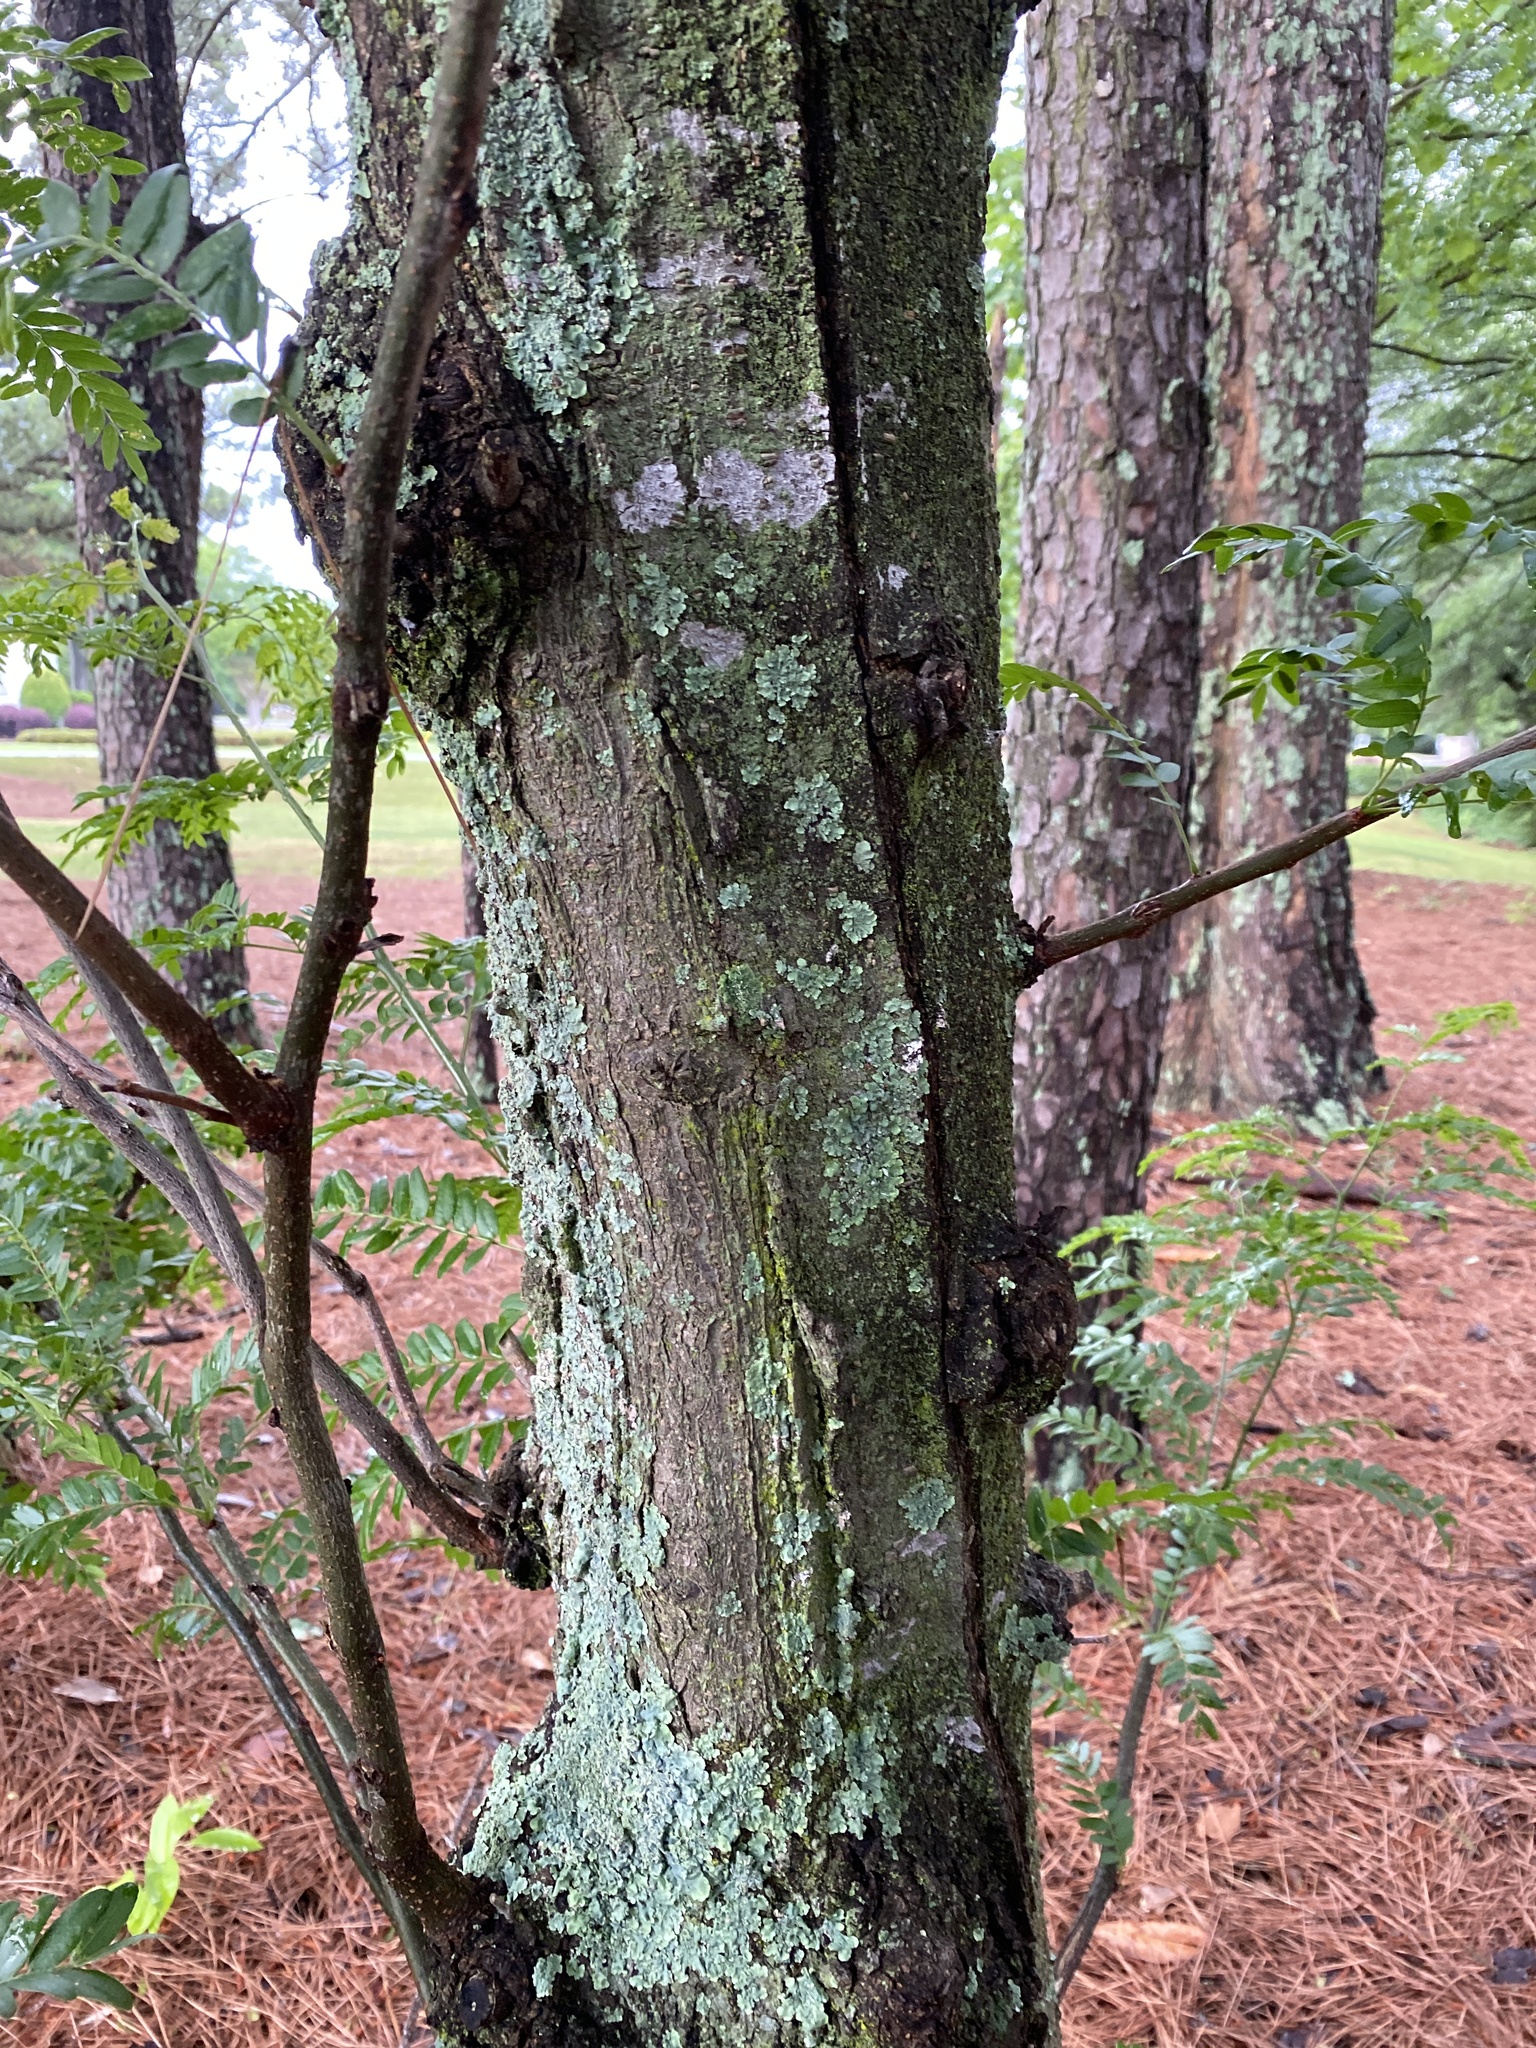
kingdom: Plantae
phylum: Tracheophyta
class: Magnoliopsida
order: Fabales
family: Fabaceae
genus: Gleditsia
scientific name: Gleditsia triacanthos
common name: Common honeylocust
